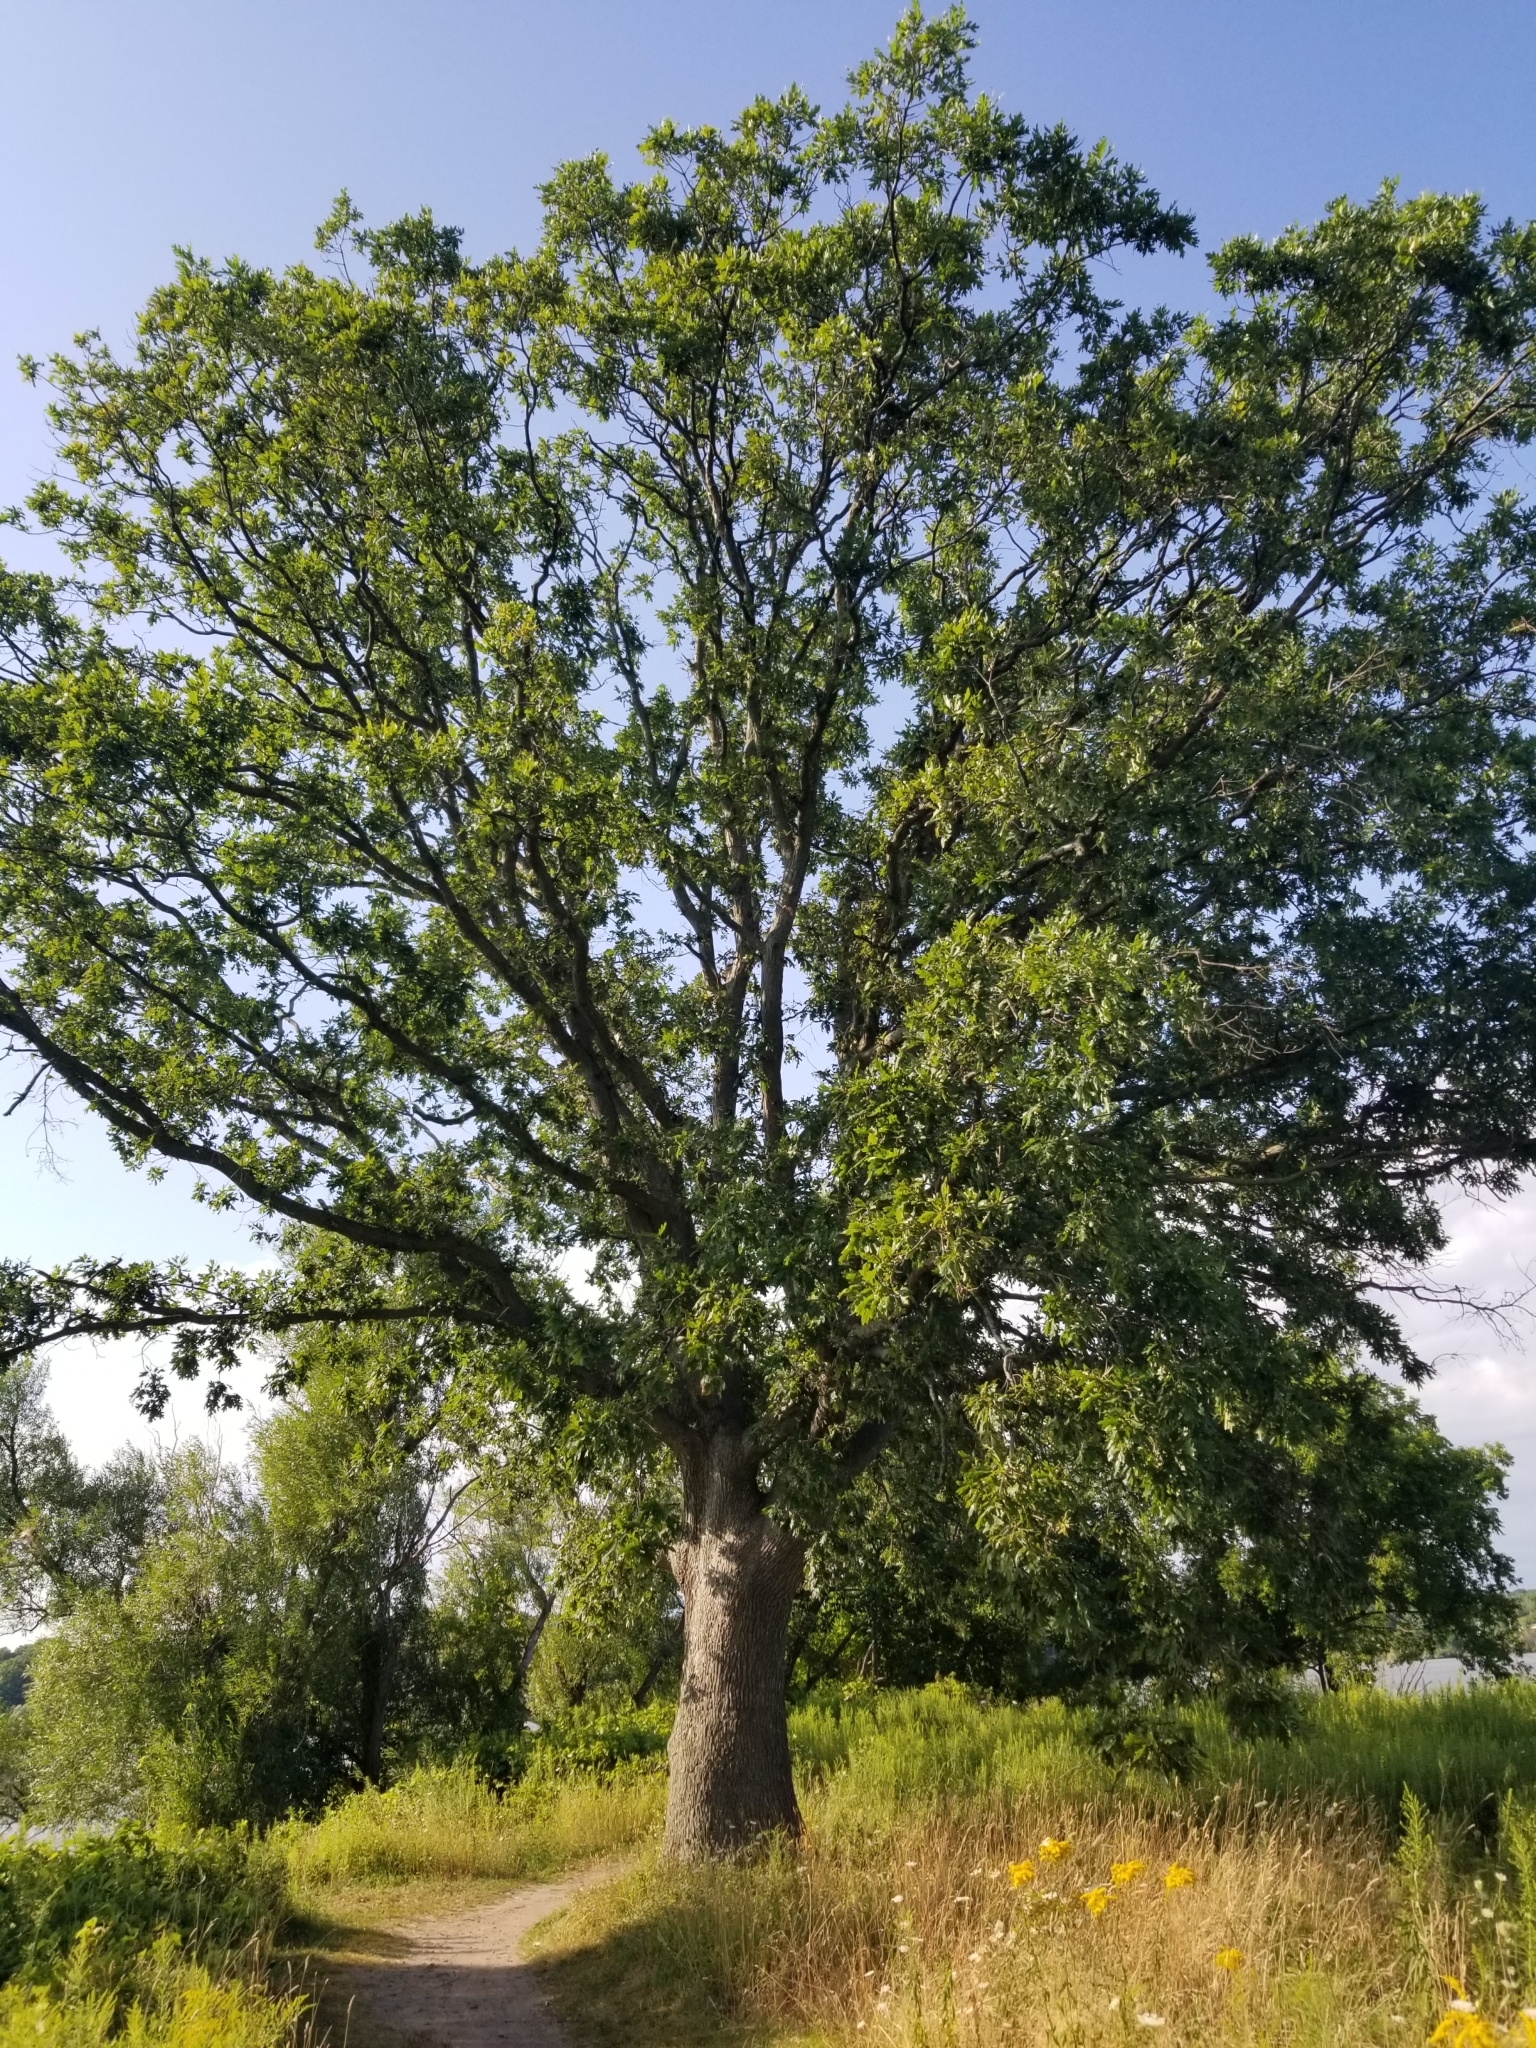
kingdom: Plantae
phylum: Tracheophyta
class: Magnoliopsida
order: Fagales
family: Fagaceae
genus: Quercus
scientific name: Quercus alba
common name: White oak
